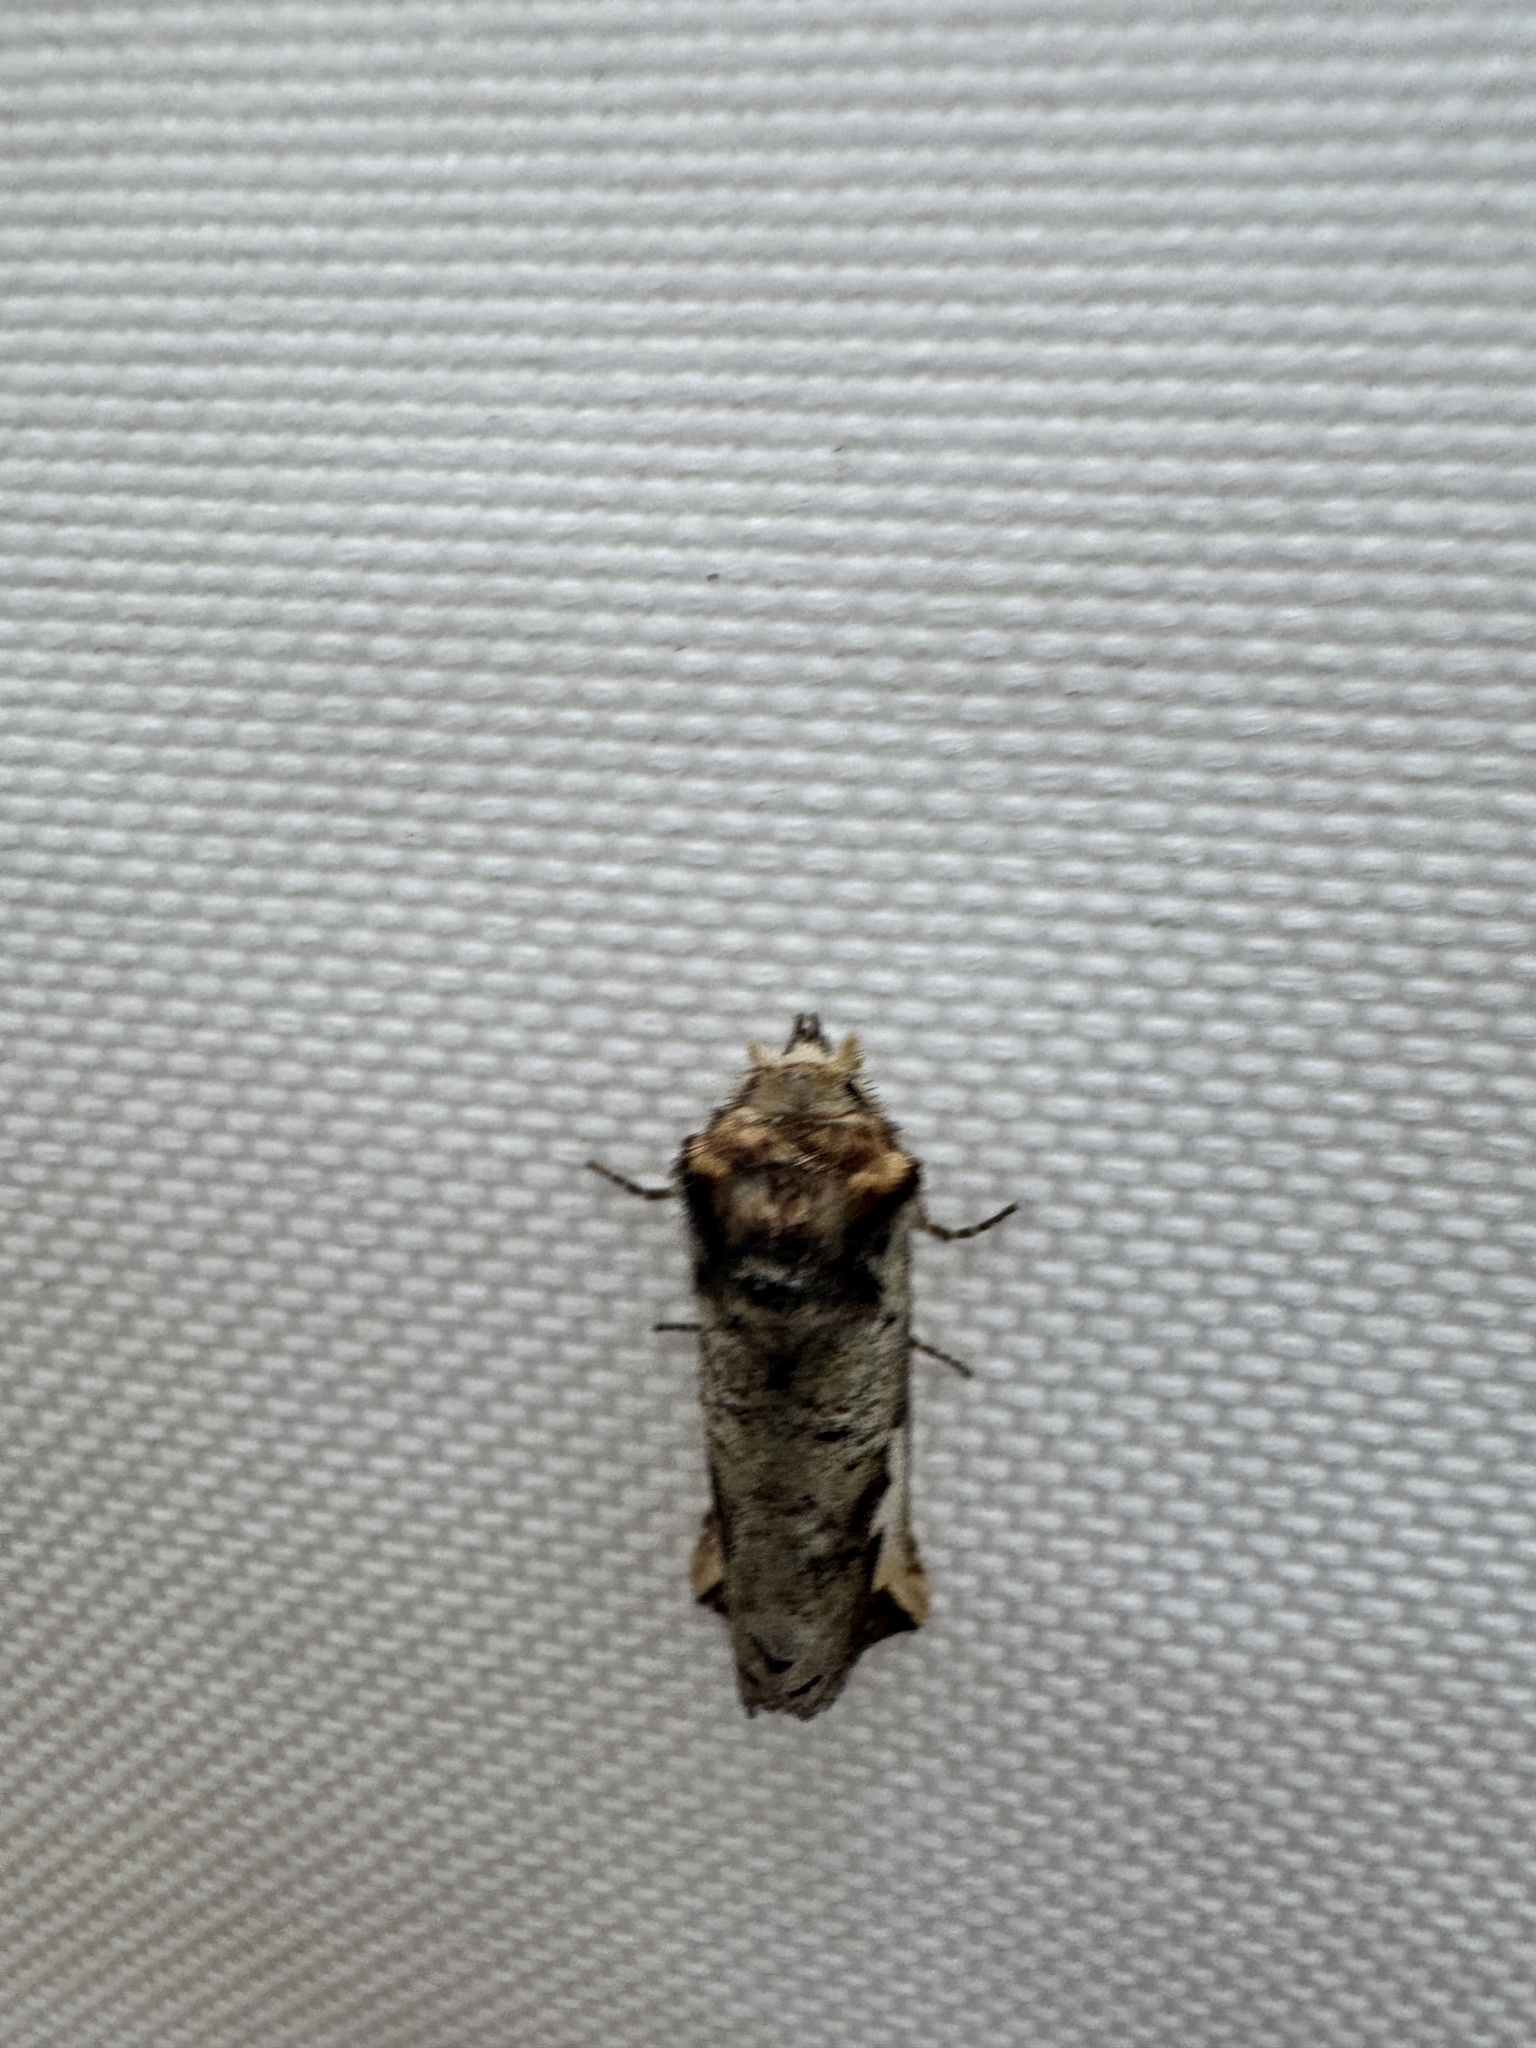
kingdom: Animalia
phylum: Arthropoda
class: Insecta
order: Lepidoptera
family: Notodontidae
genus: Symmerista
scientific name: Symmerista albifrons
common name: White-headed prominent
